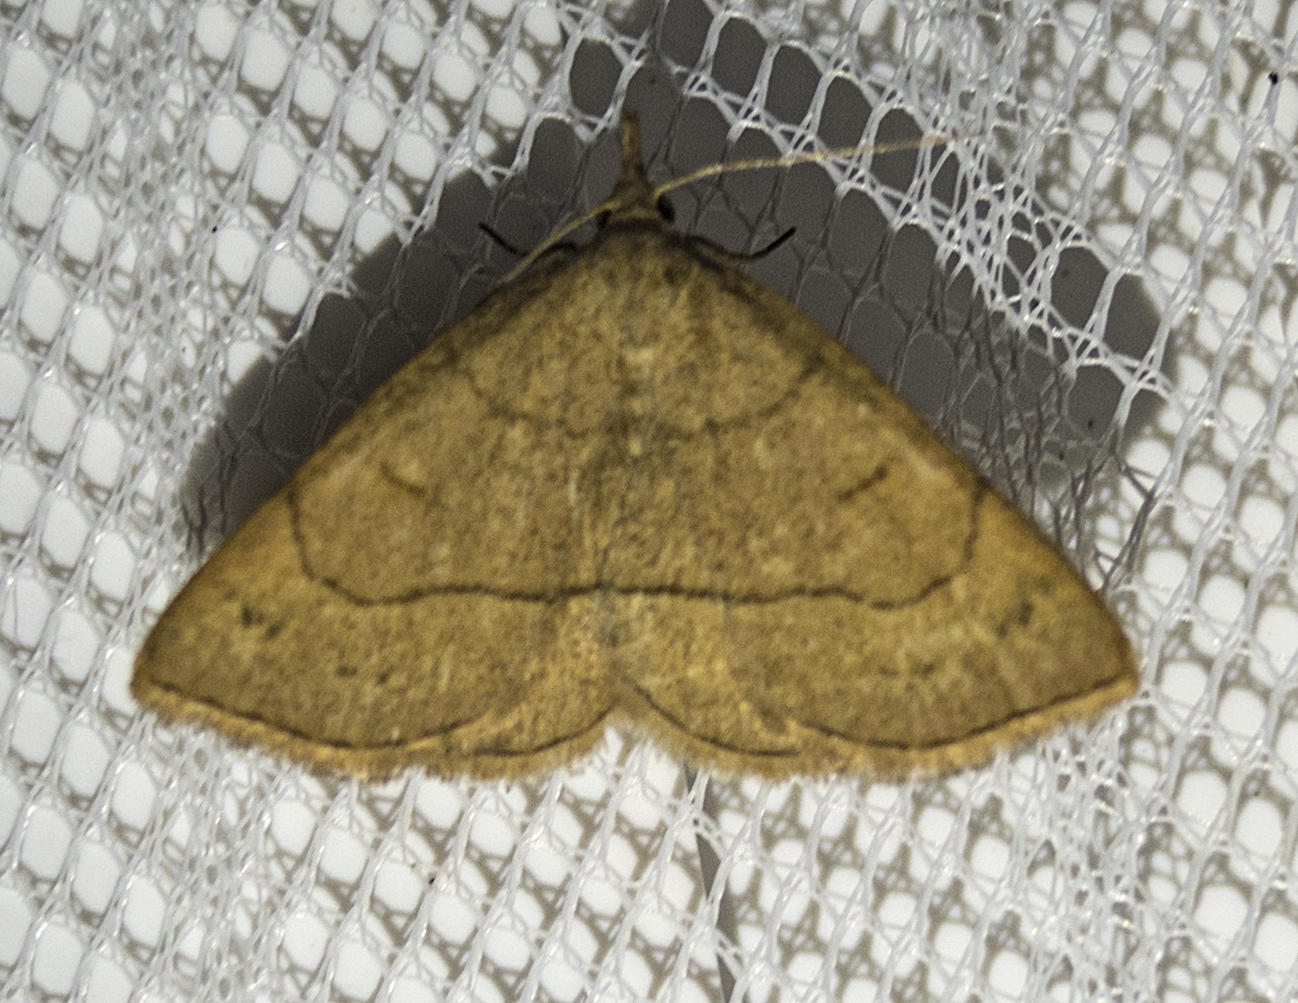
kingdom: Animalia
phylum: Arthropoda
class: Insecta
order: Lepidoptera
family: Erebidae
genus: Paracolax
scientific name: Paracolax tristalis
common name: Clay fan-foot
